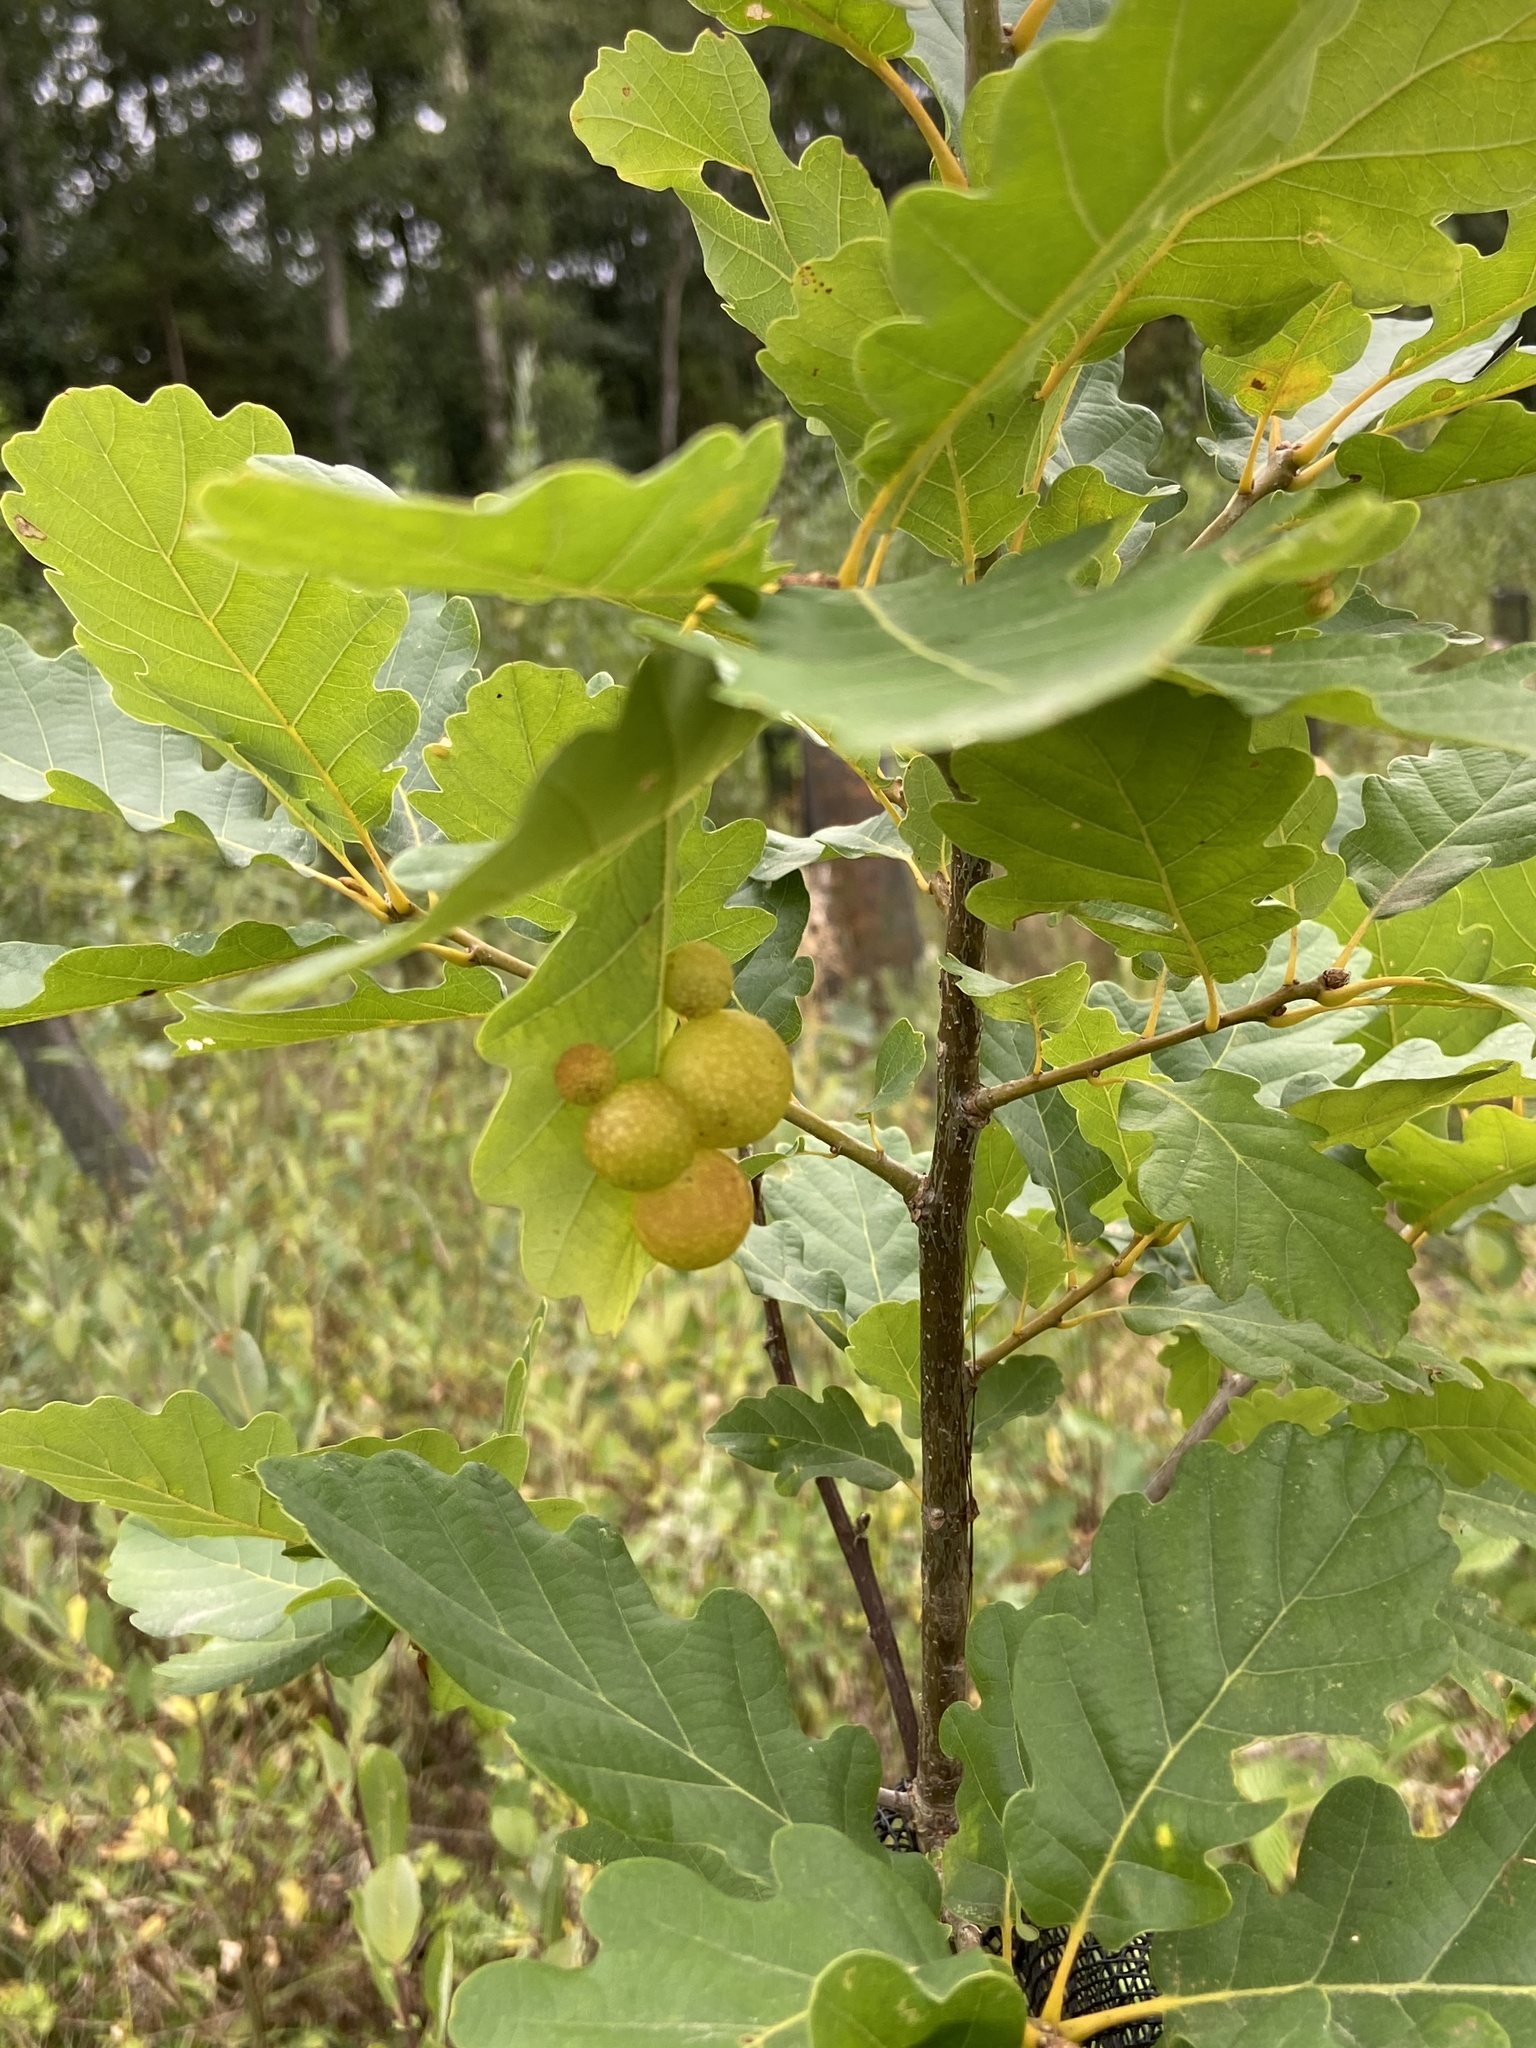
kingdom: Animalia
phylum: Arthropoda
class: Insecta
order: Hymenoptera
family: Cynipidae
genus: Cynips
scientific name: Cynips quercusfolii
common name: Cherry gall
